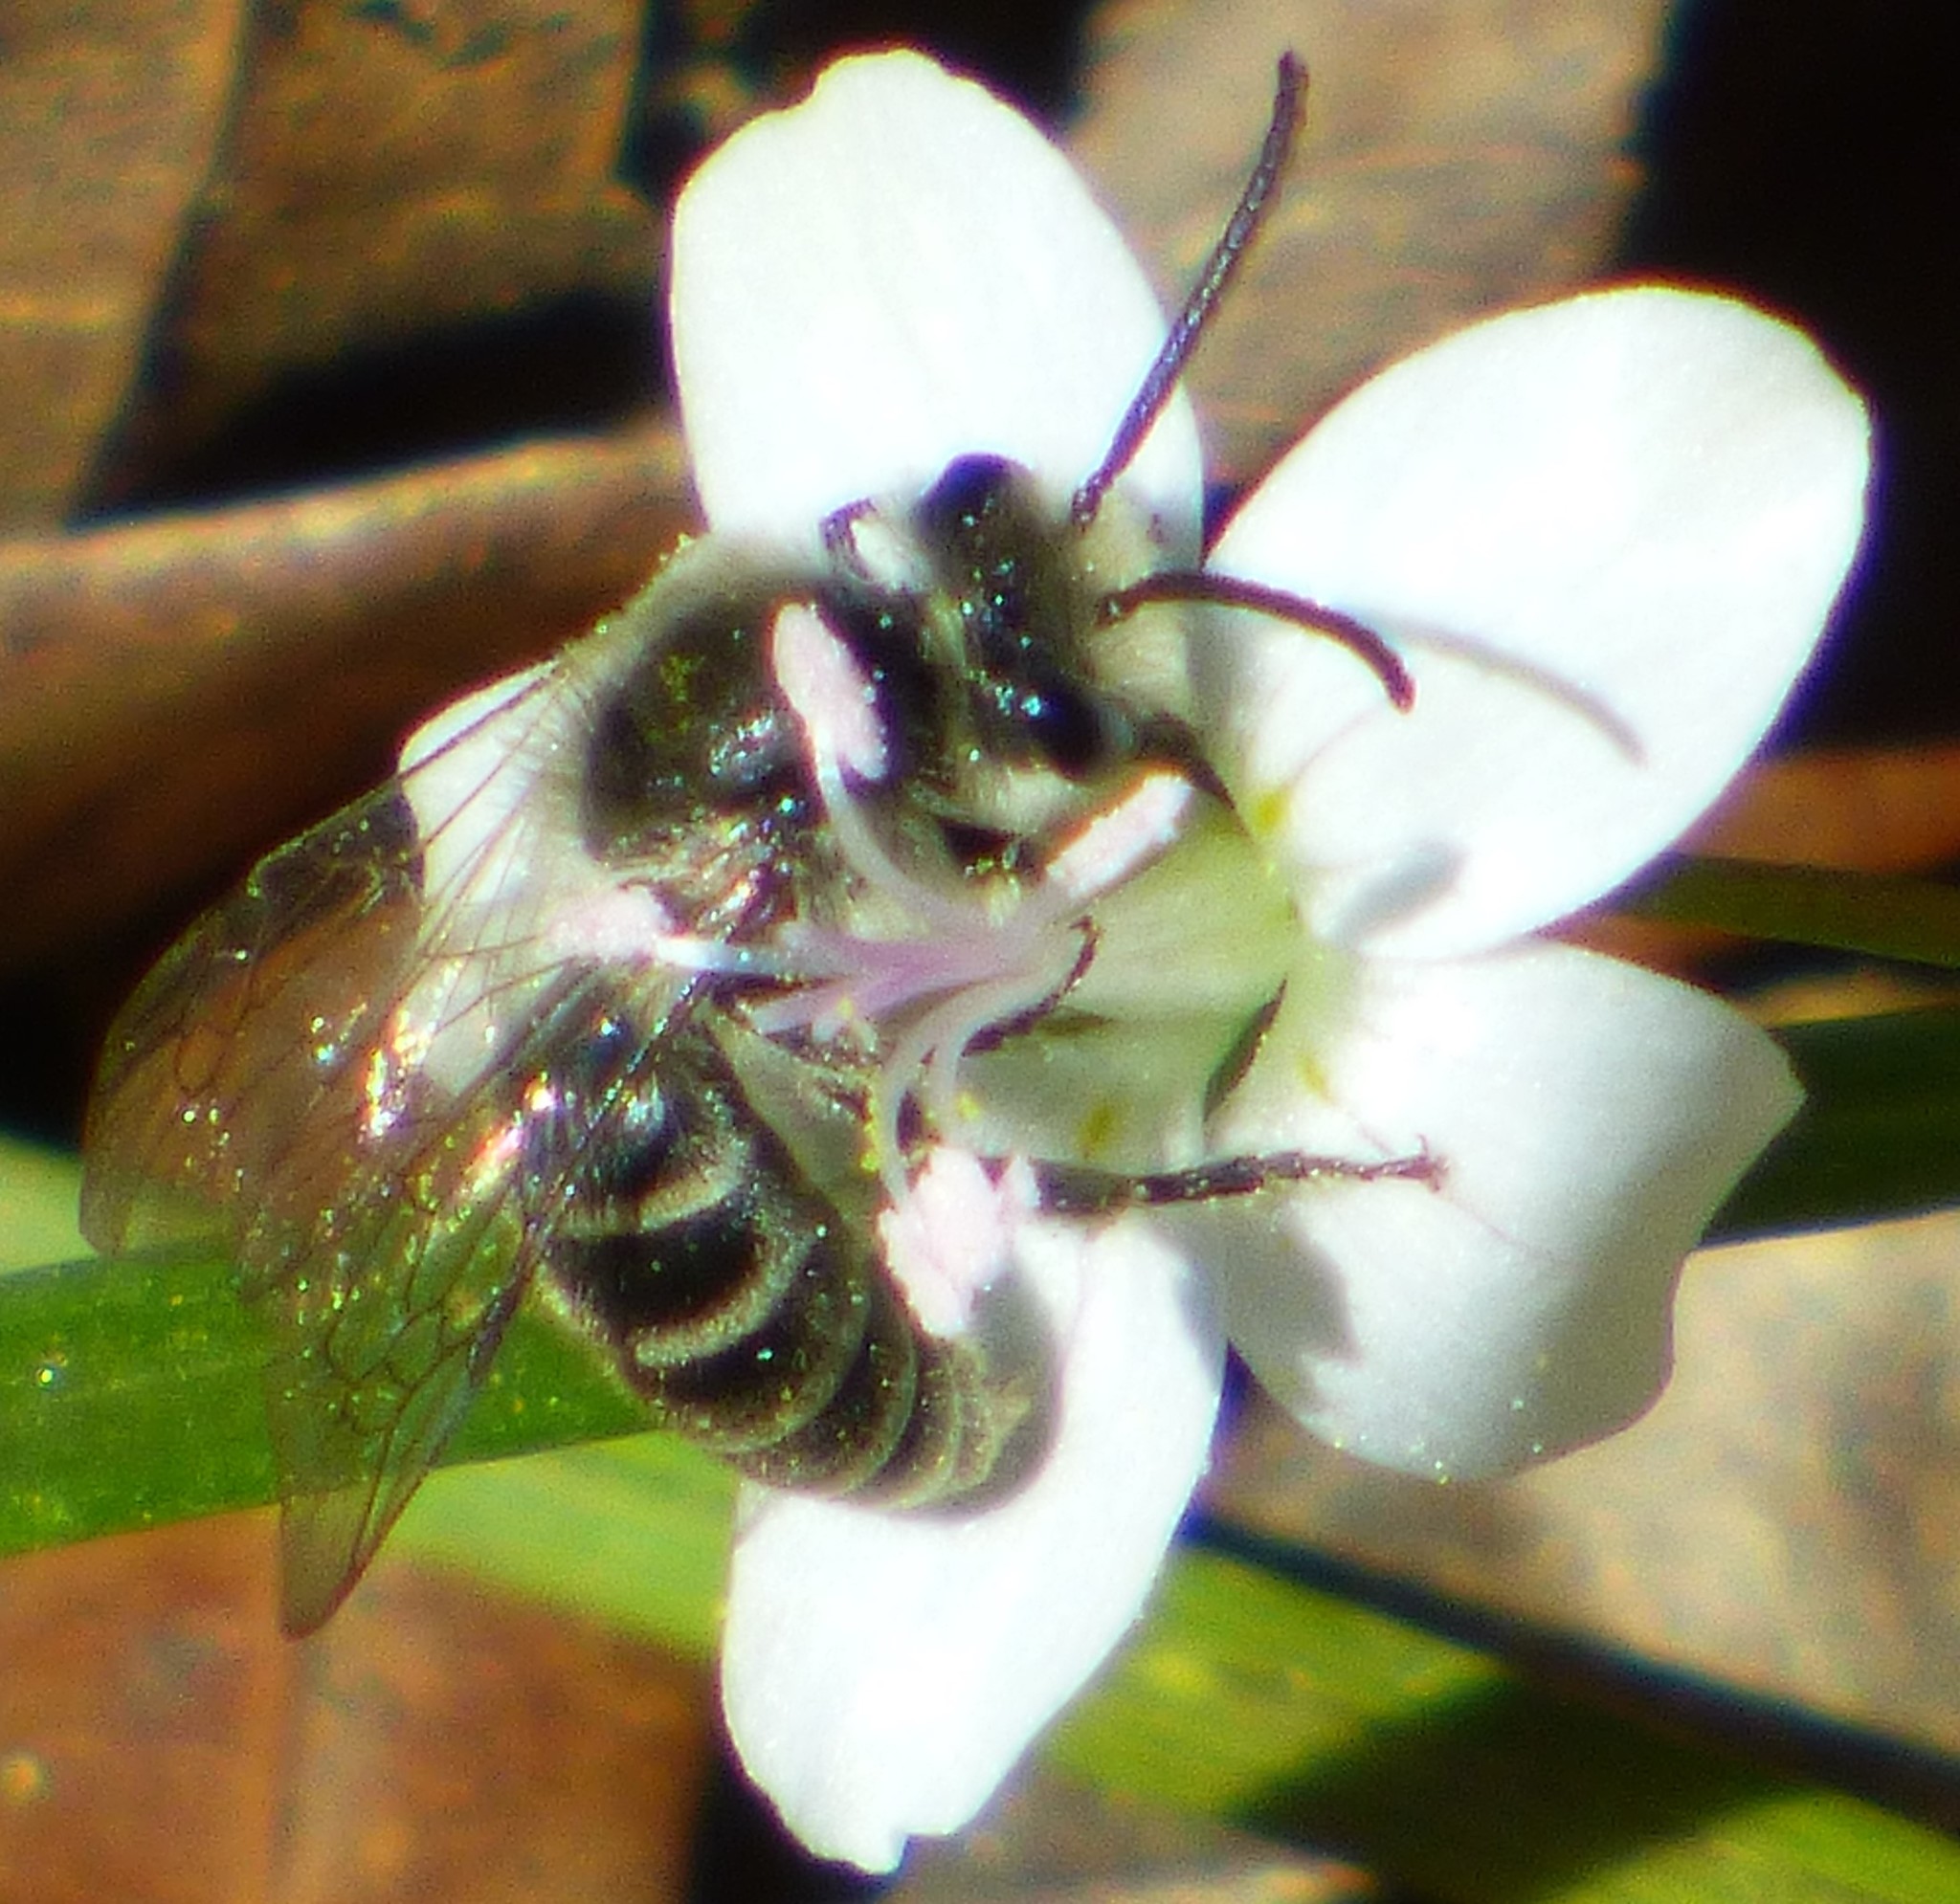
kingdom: Animalia
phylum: Arthropoda
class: Insecta
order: Hymenoptera
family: Colletidae
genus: Colletes
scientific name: Colletes inaequalis
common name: Unequal cellophane bee
